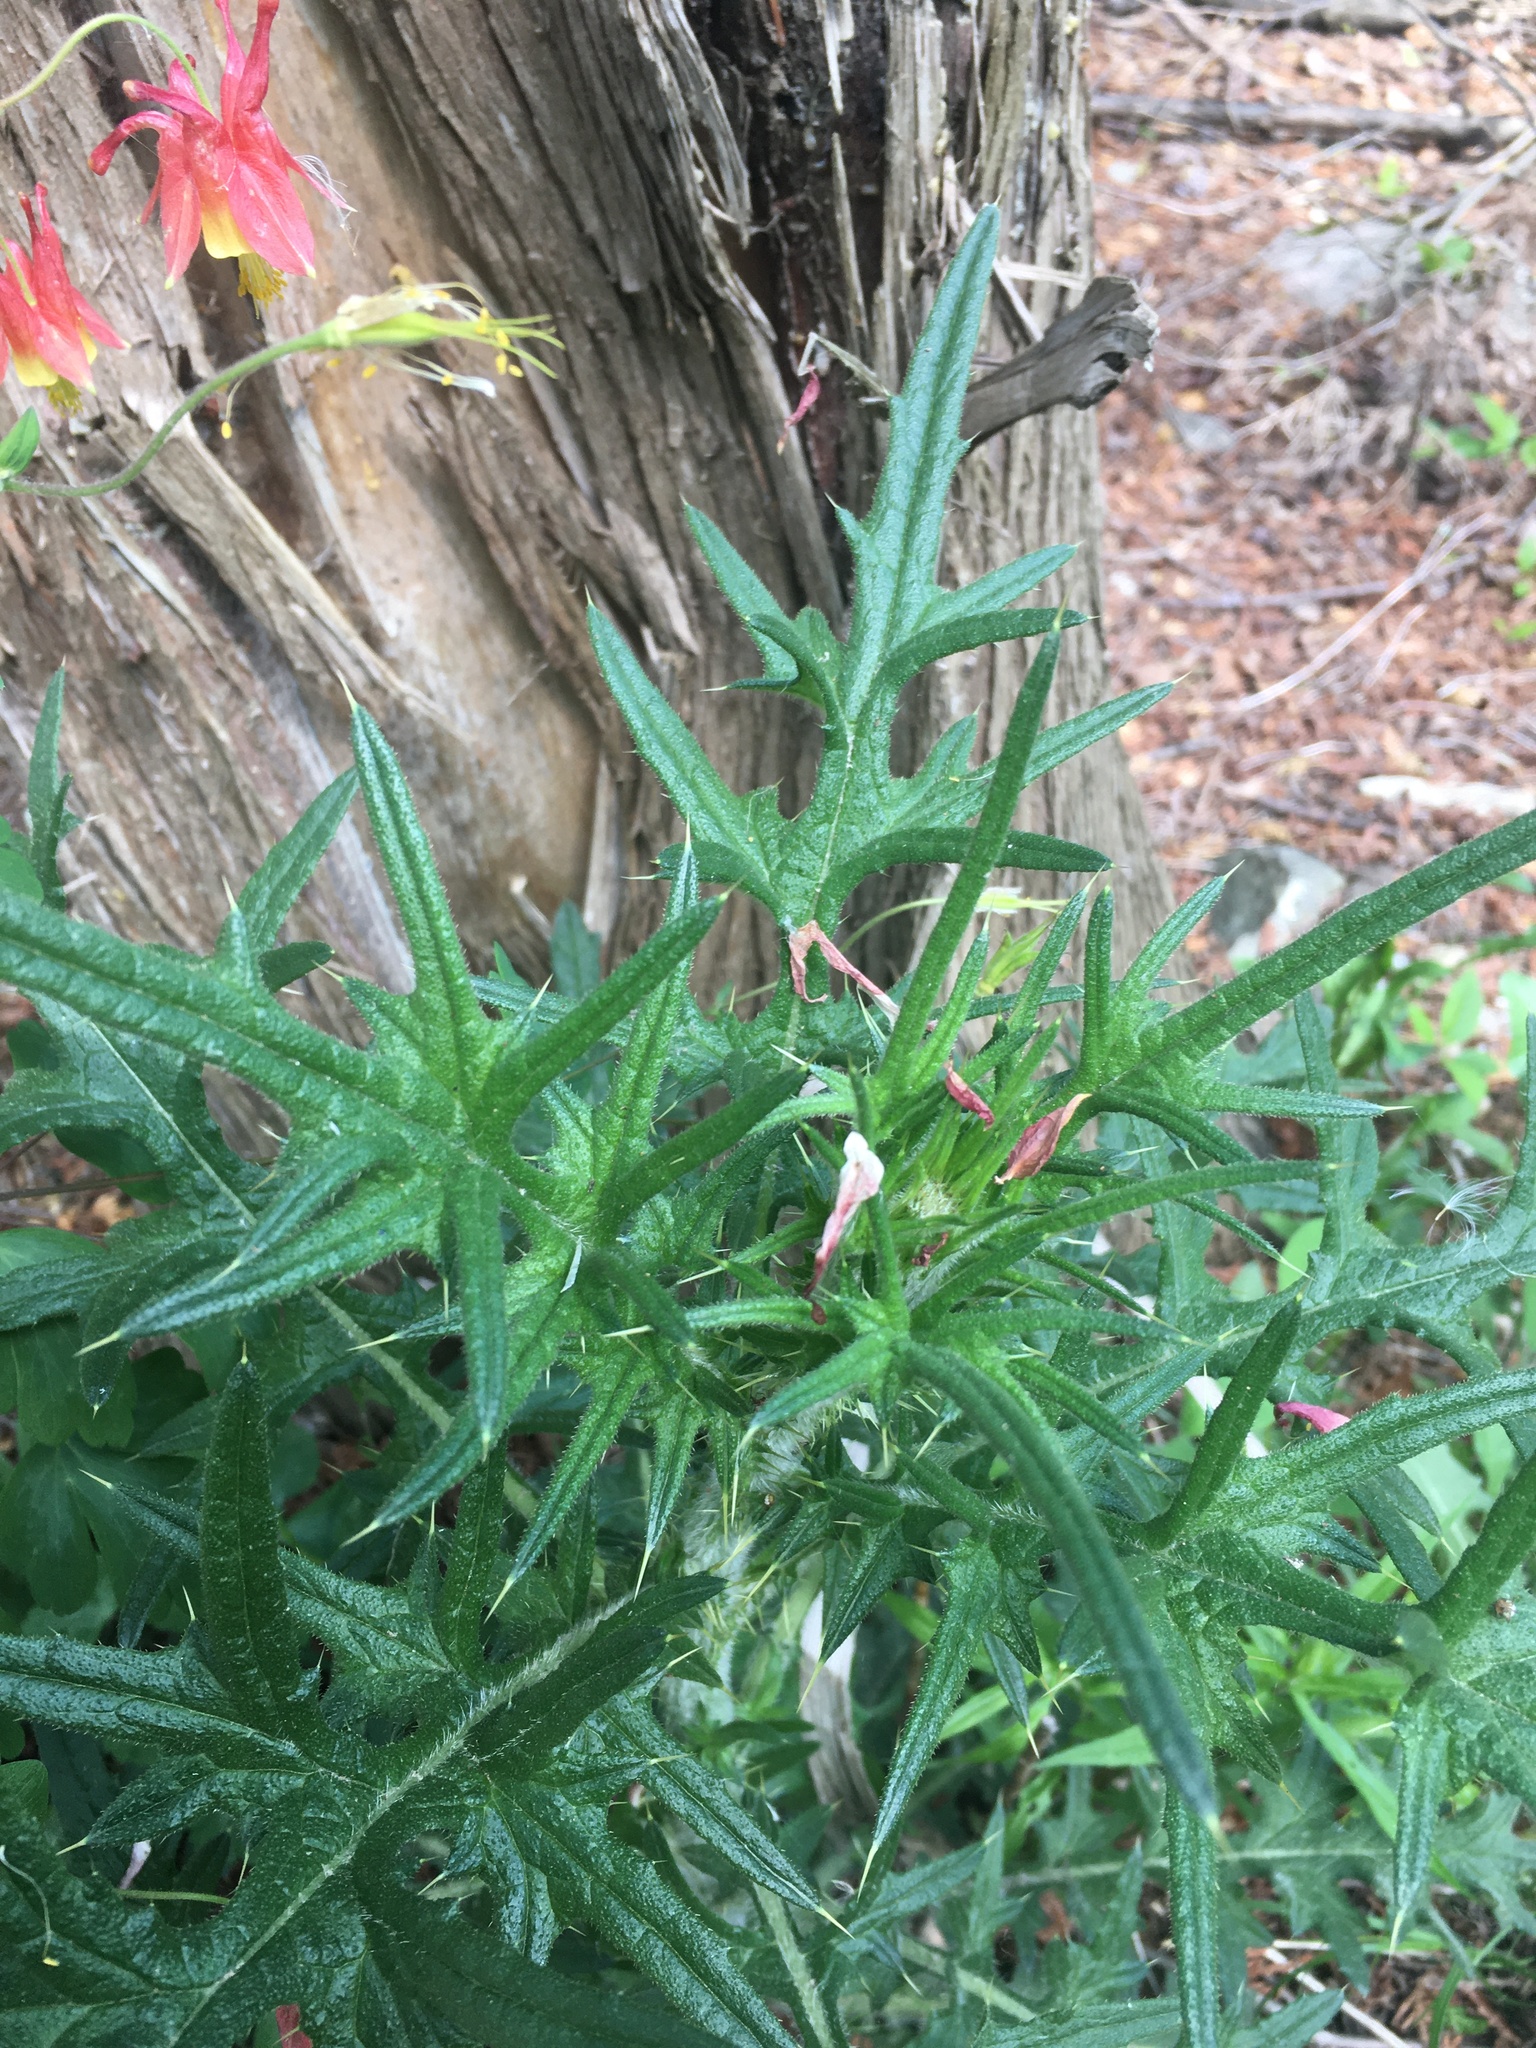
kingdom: Plantae
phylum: Tracheophyta
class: Magnoliopsida
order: Asterales
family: Asteraceae
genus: Cirsium
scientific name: Cirsium vulgare
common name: Bull thistle
